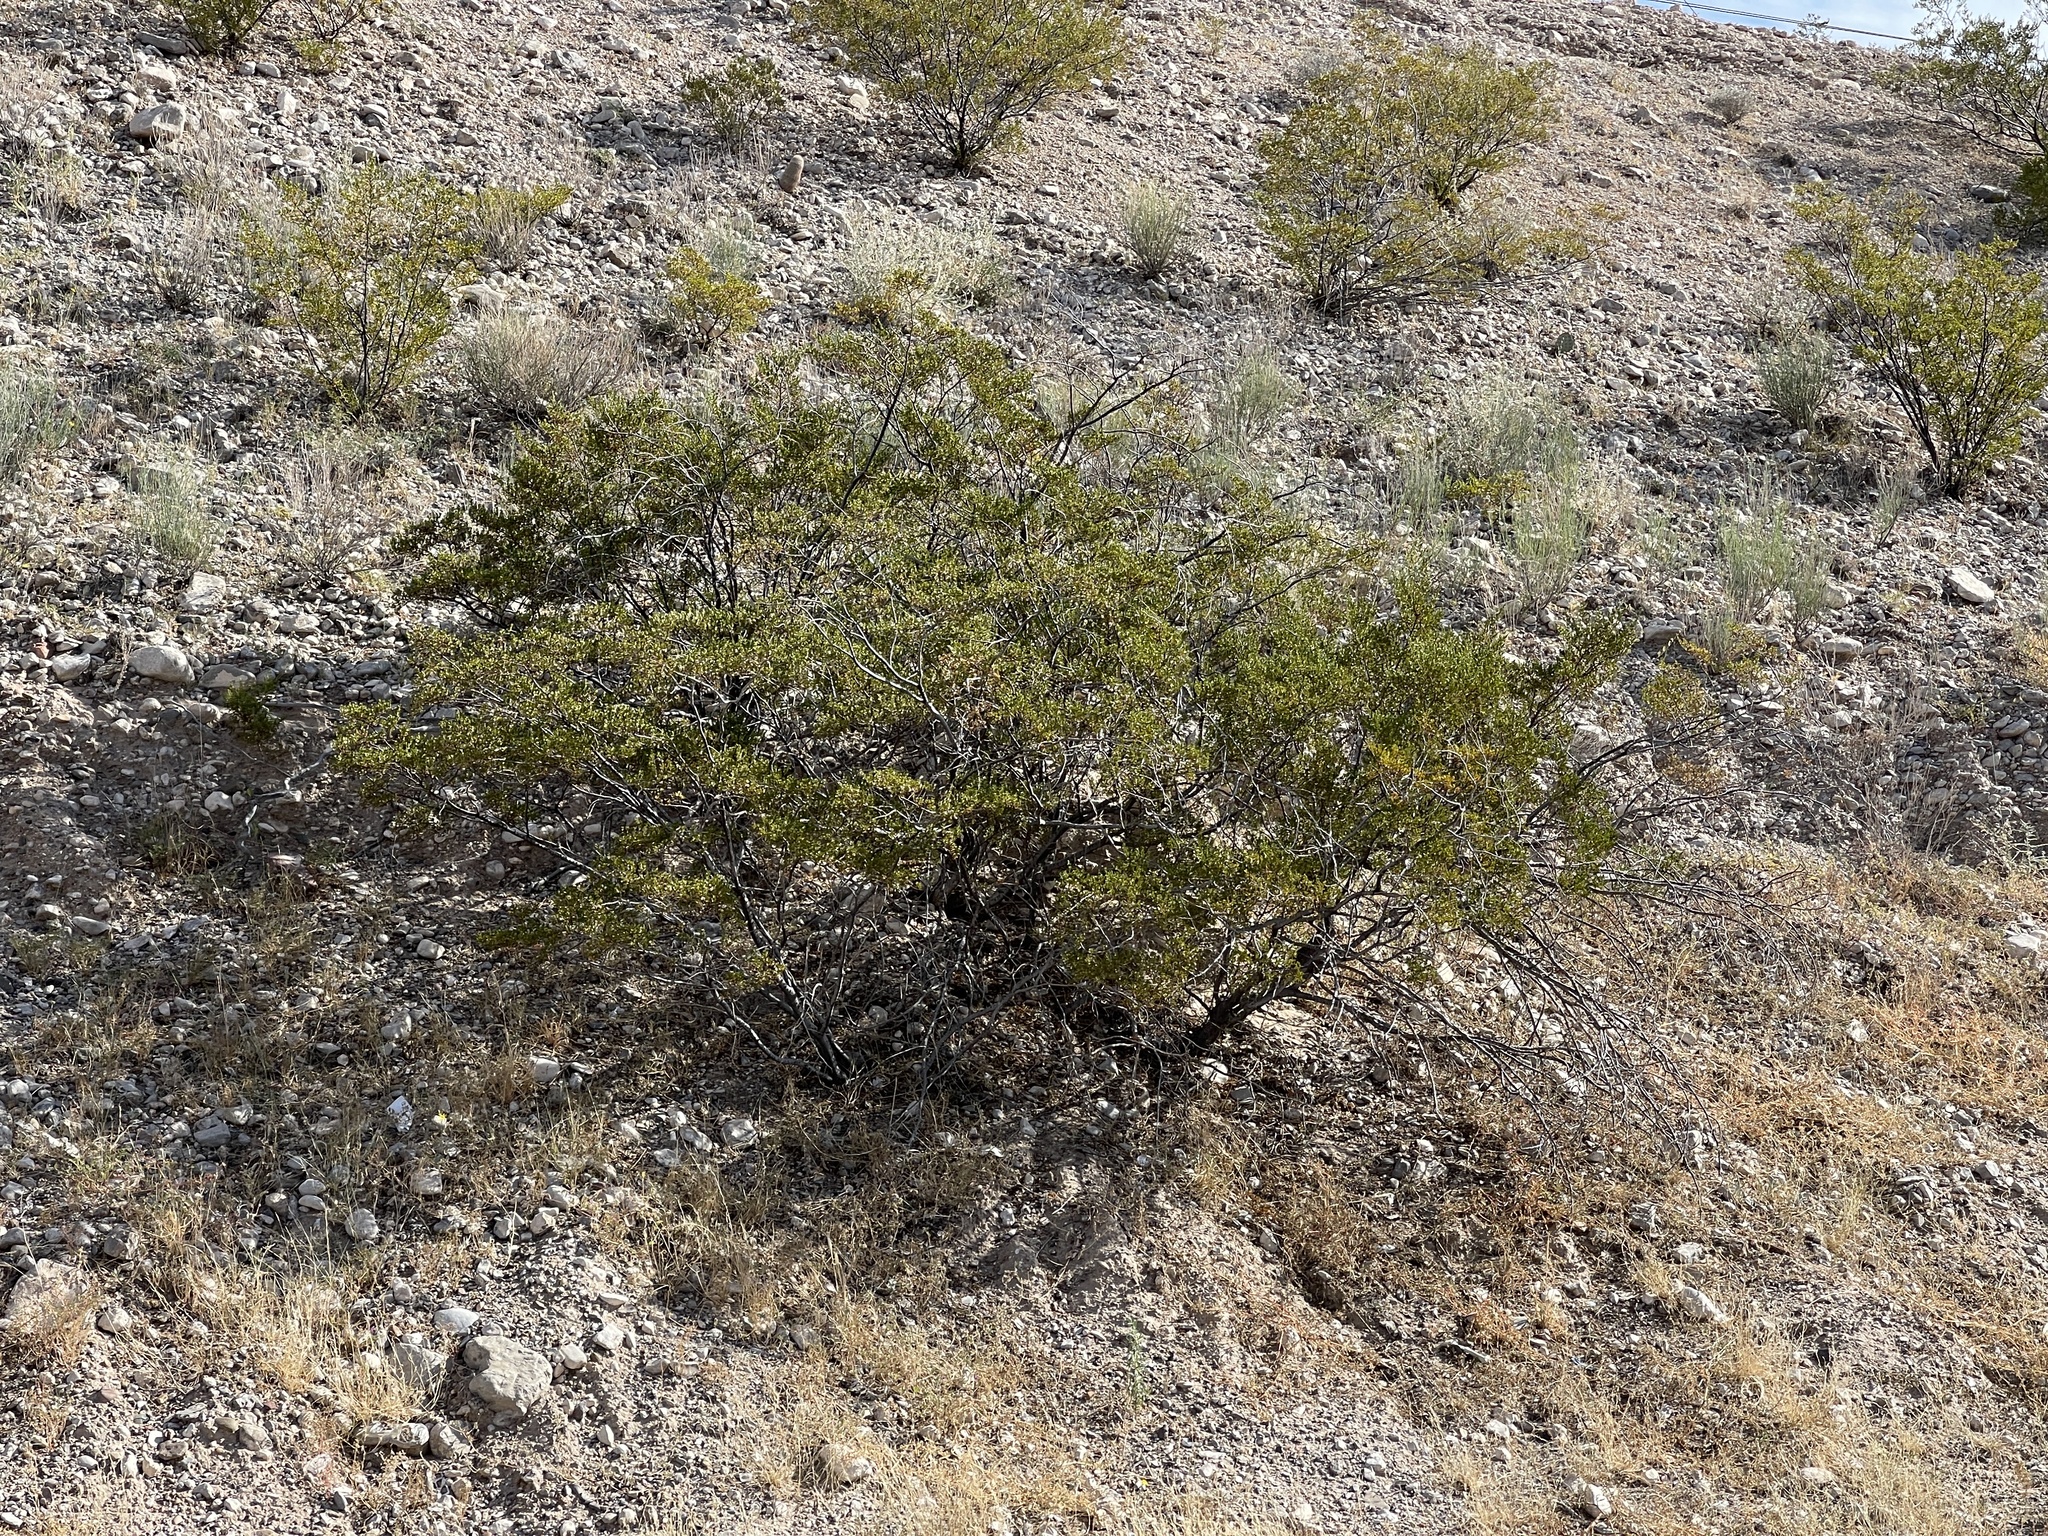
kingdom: Plantae
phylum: Tracheophyta
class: Magnoliopsida
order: Zygophyllales
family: Zygophyllaceae
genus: Larrea
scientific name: Larrea tridentata
